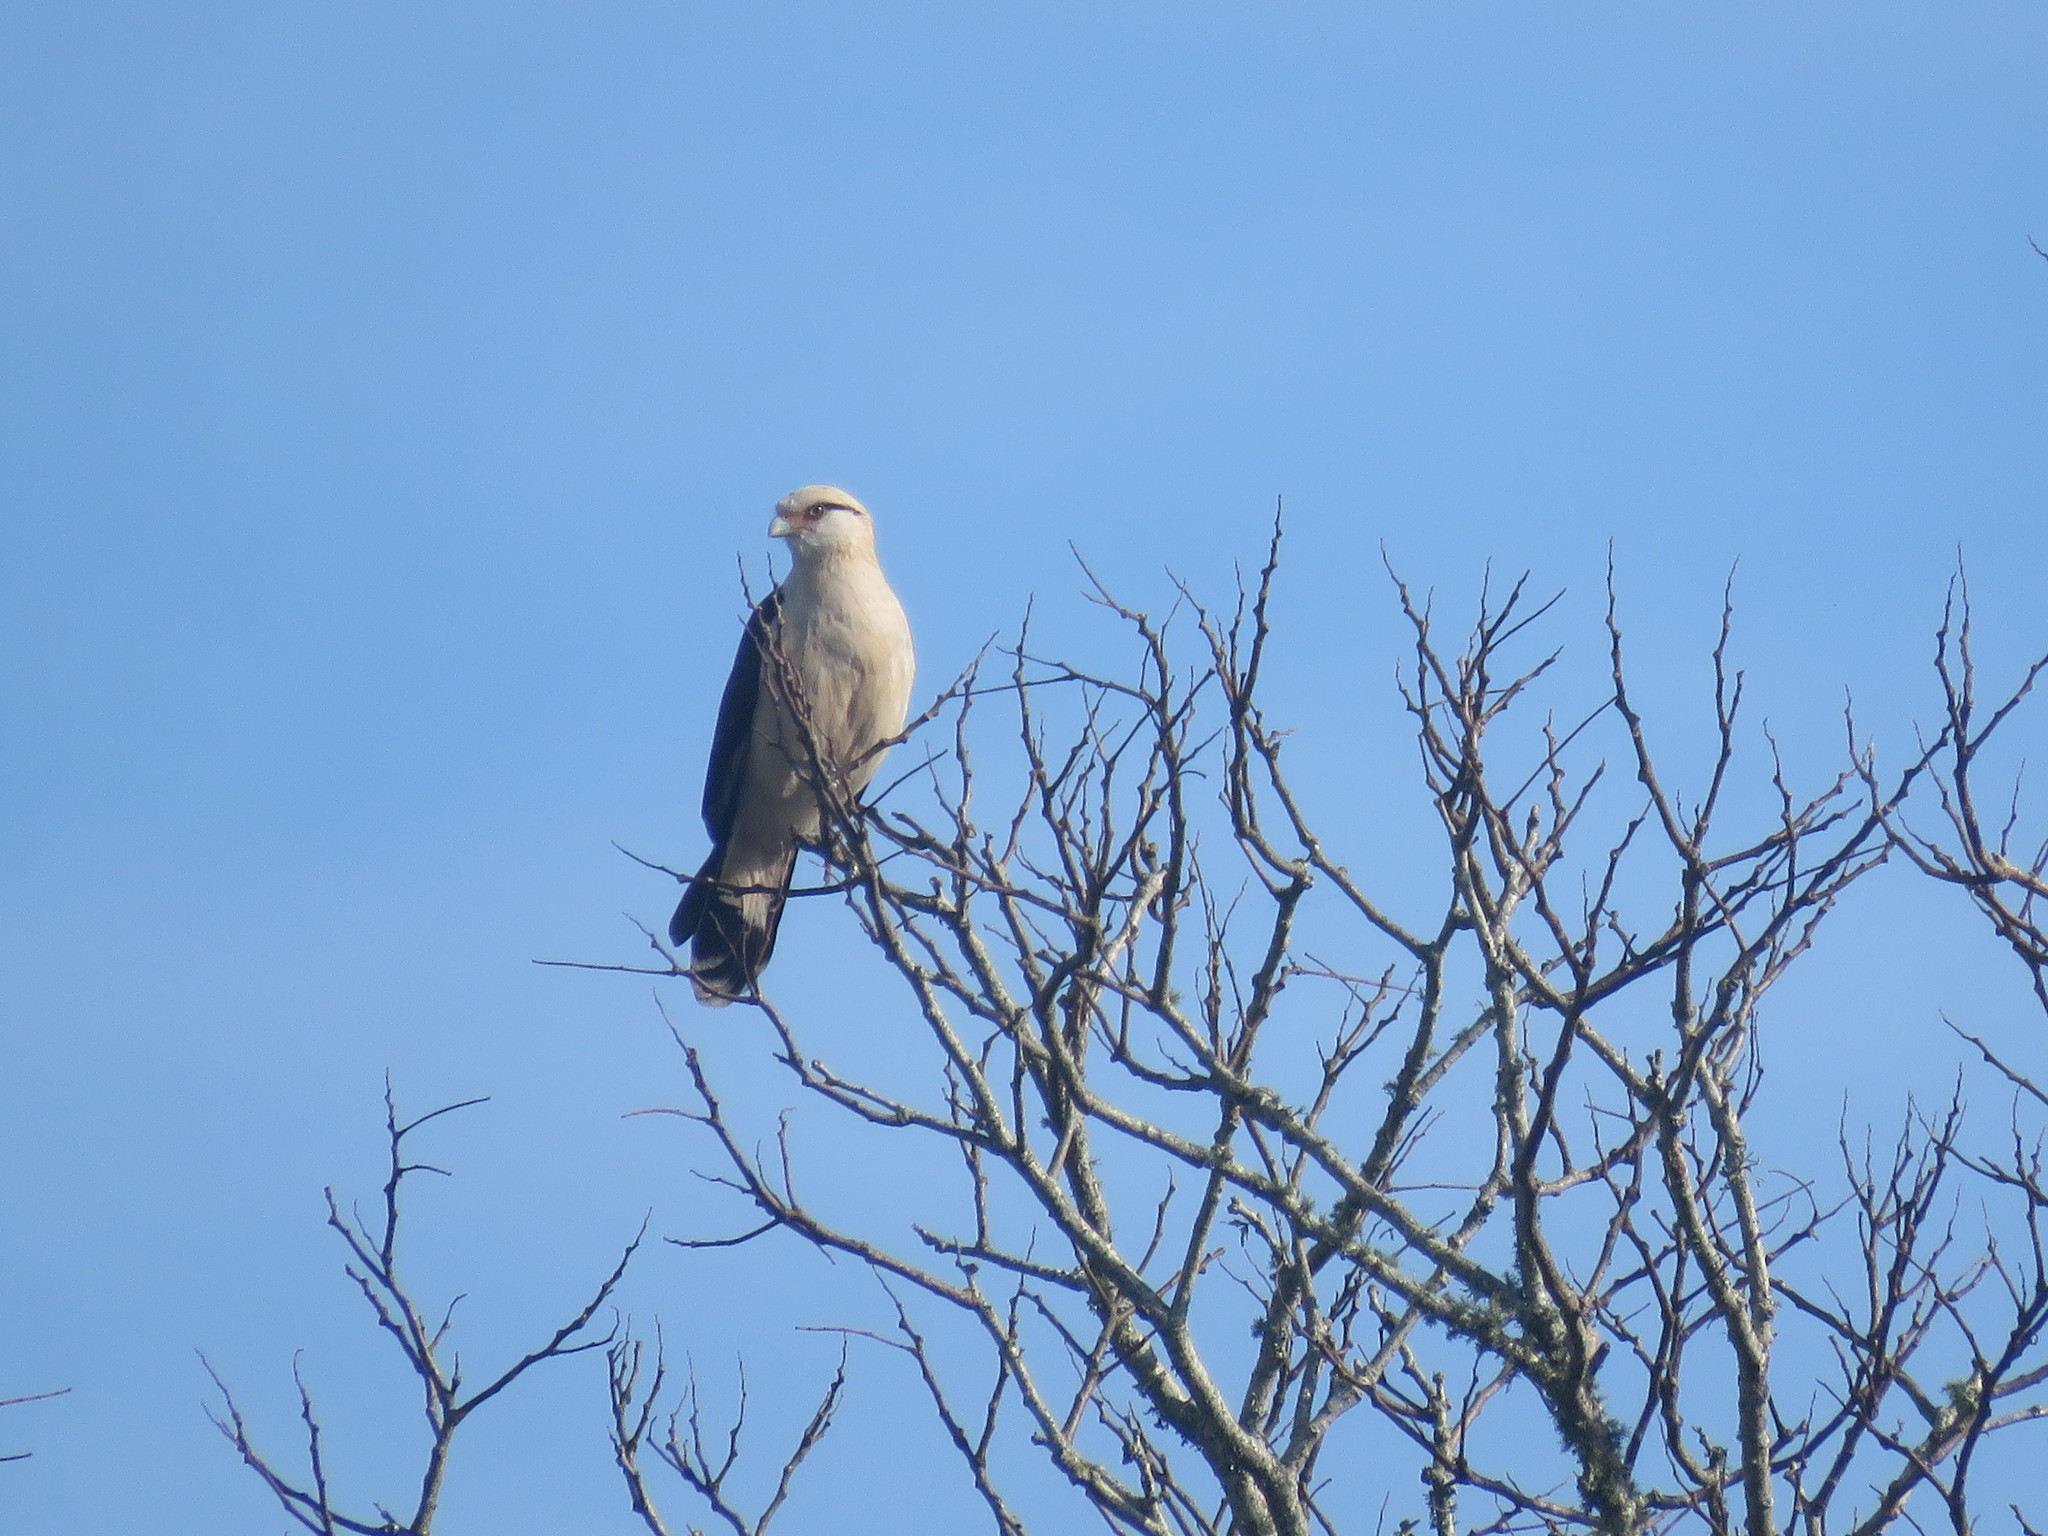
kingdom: Animalia
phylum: Chordata
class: Aves
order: Falconiformes
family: Falconidae
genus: Daptrius
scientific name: Daptrius
